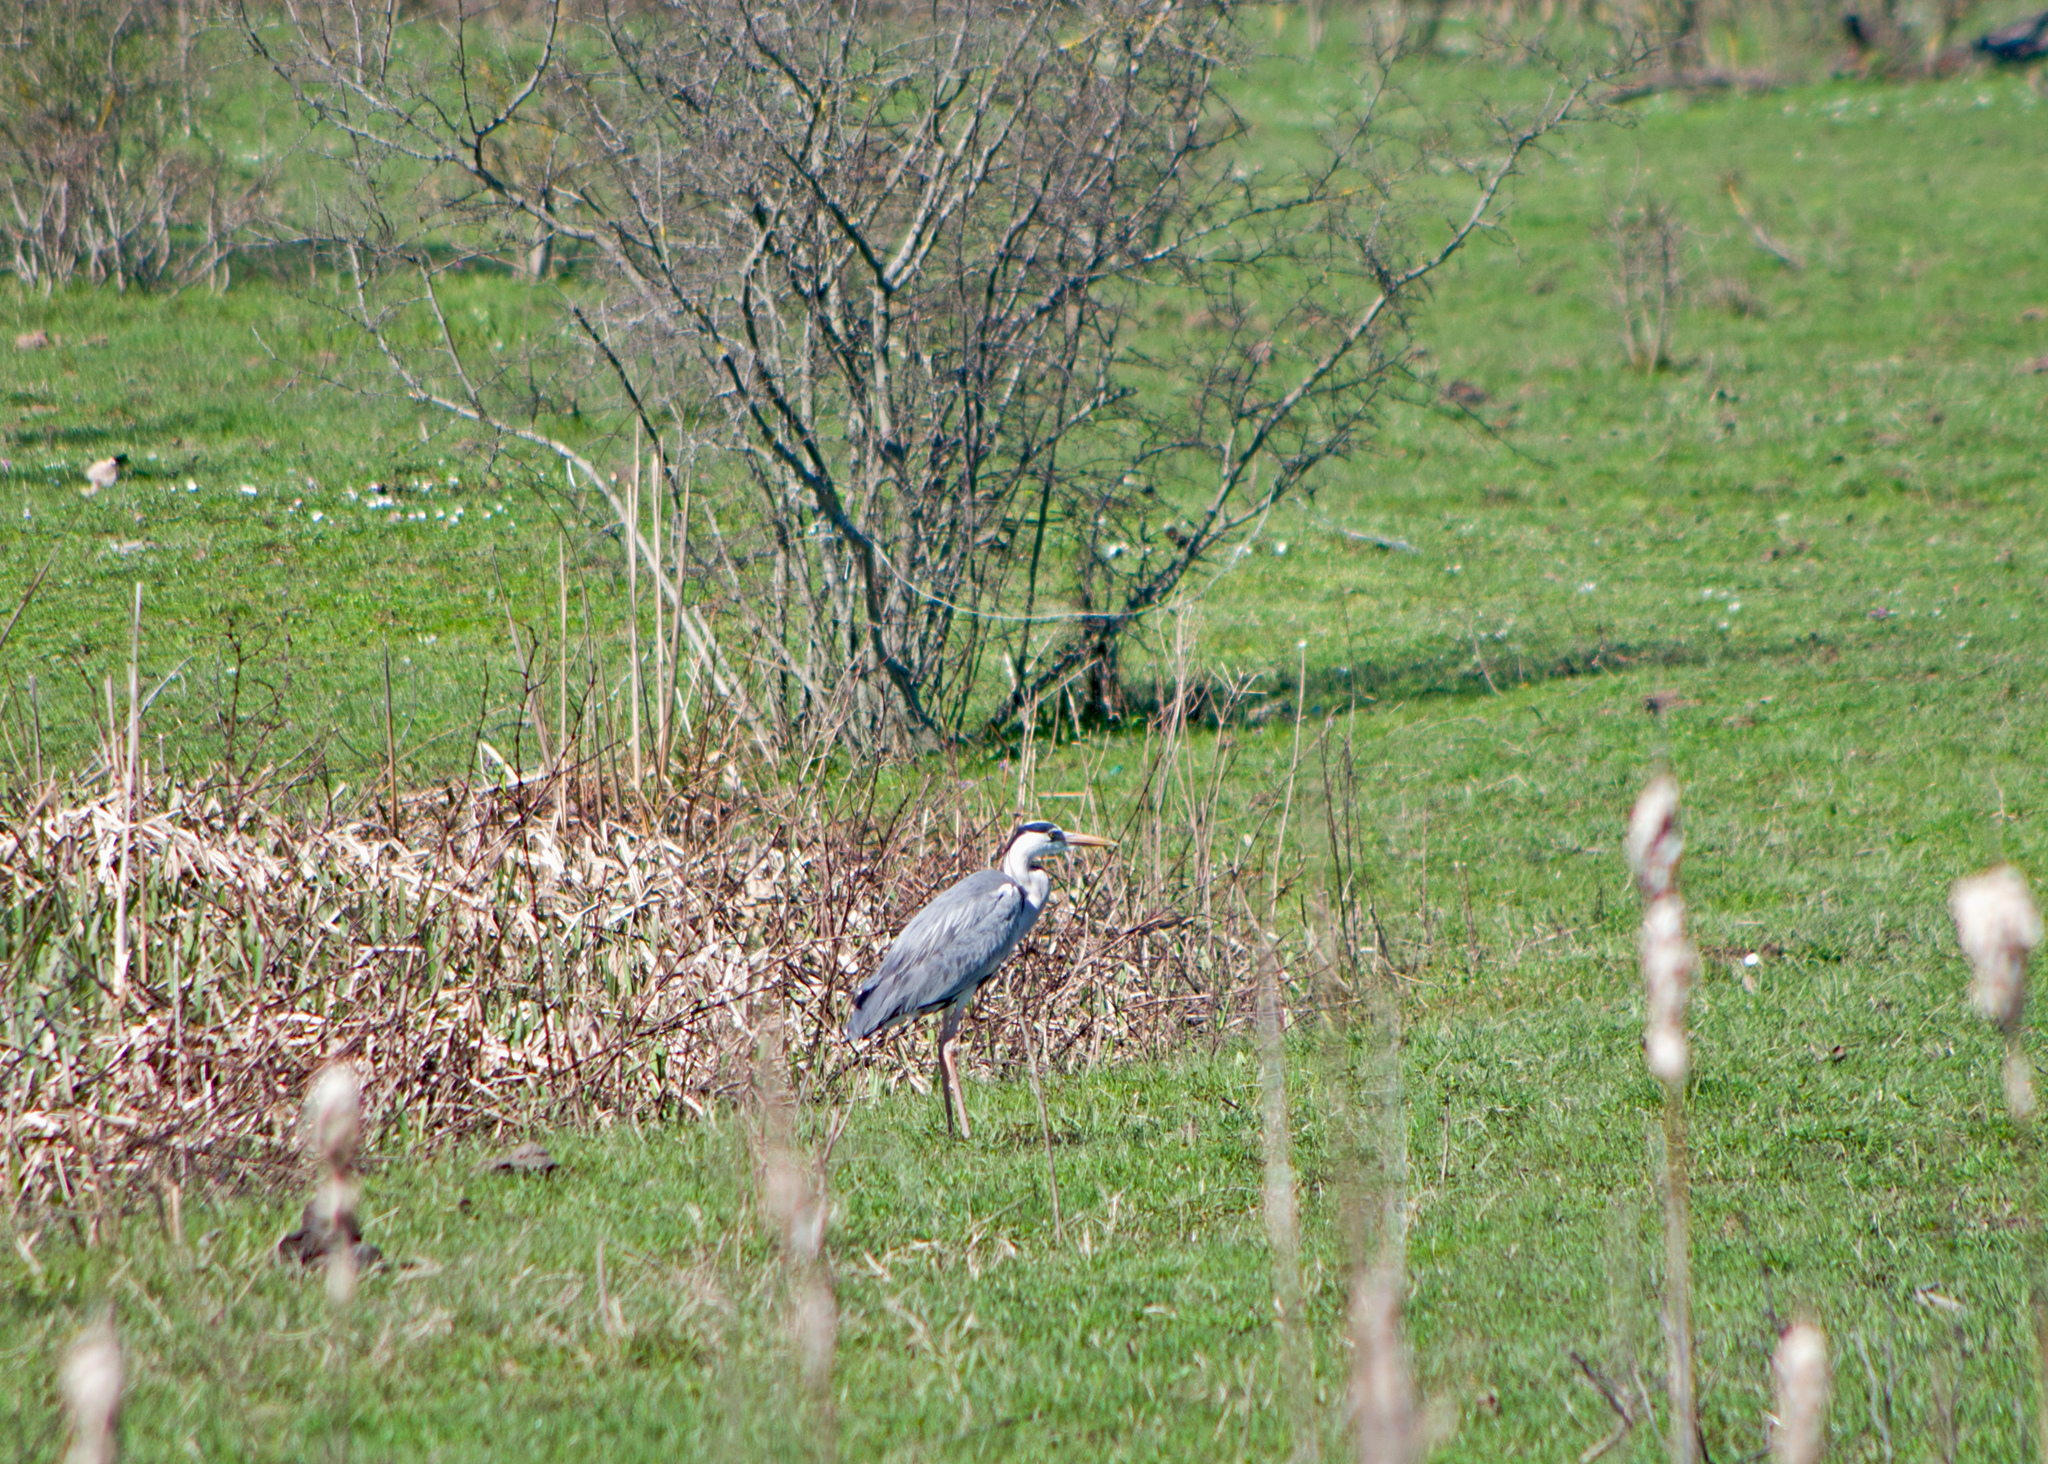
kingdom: Animalia
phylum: Chordata
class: Aves
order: Pelecaniformes
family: Ardeidae
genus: Ardea
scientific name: Ardea cinerea
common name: Grey heron
